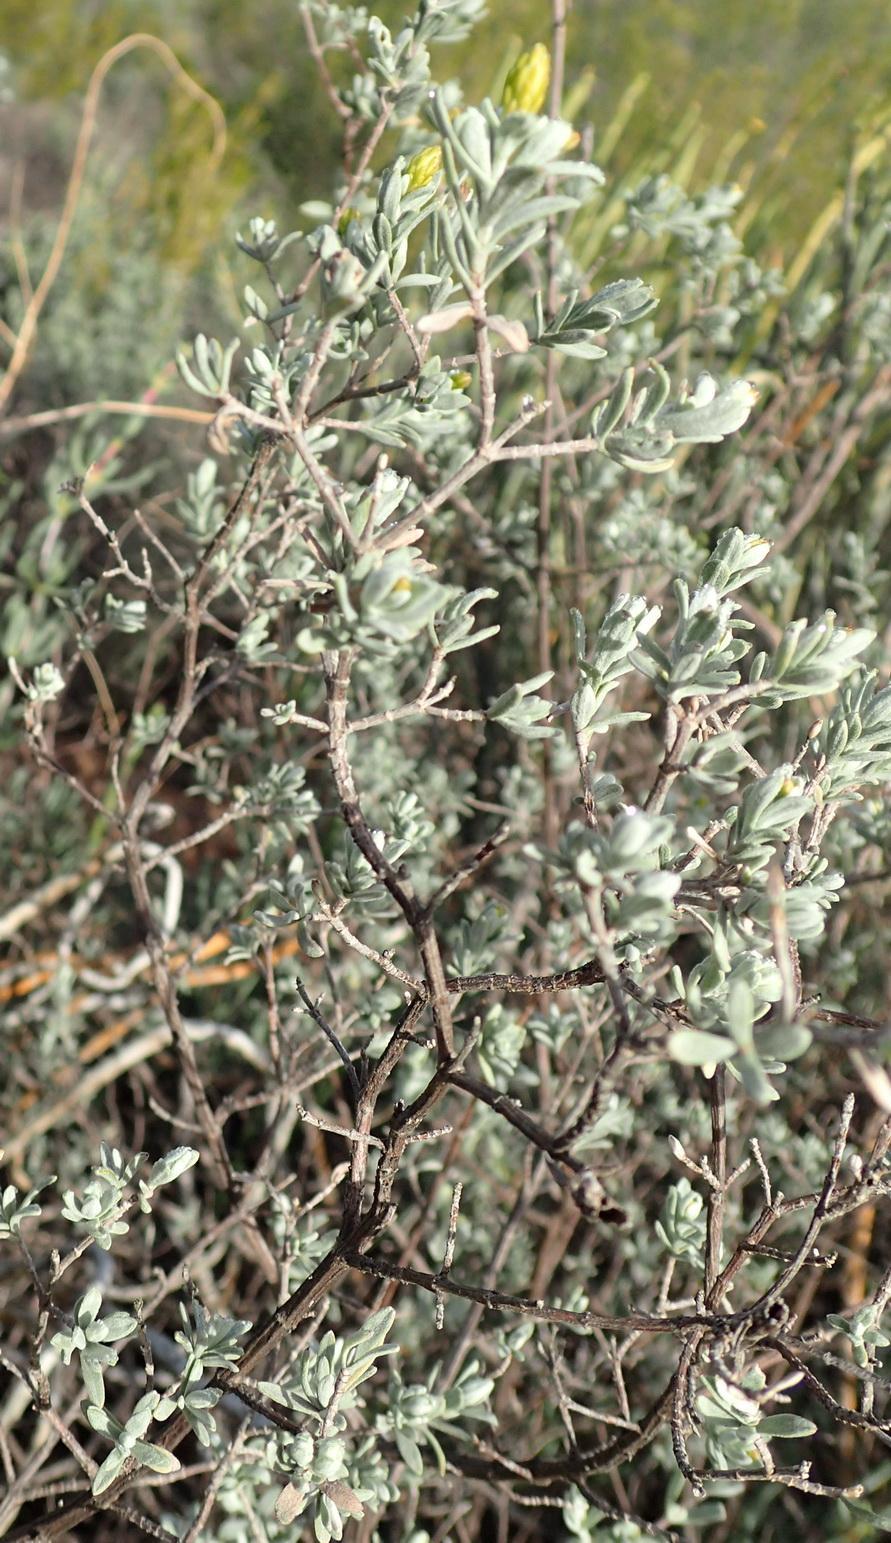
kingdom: Plantae
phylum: Tracheophyta
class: Magnoliopsida
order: Asterales
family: Asteraceae
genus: Pteronia
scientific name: Pteronia incana
